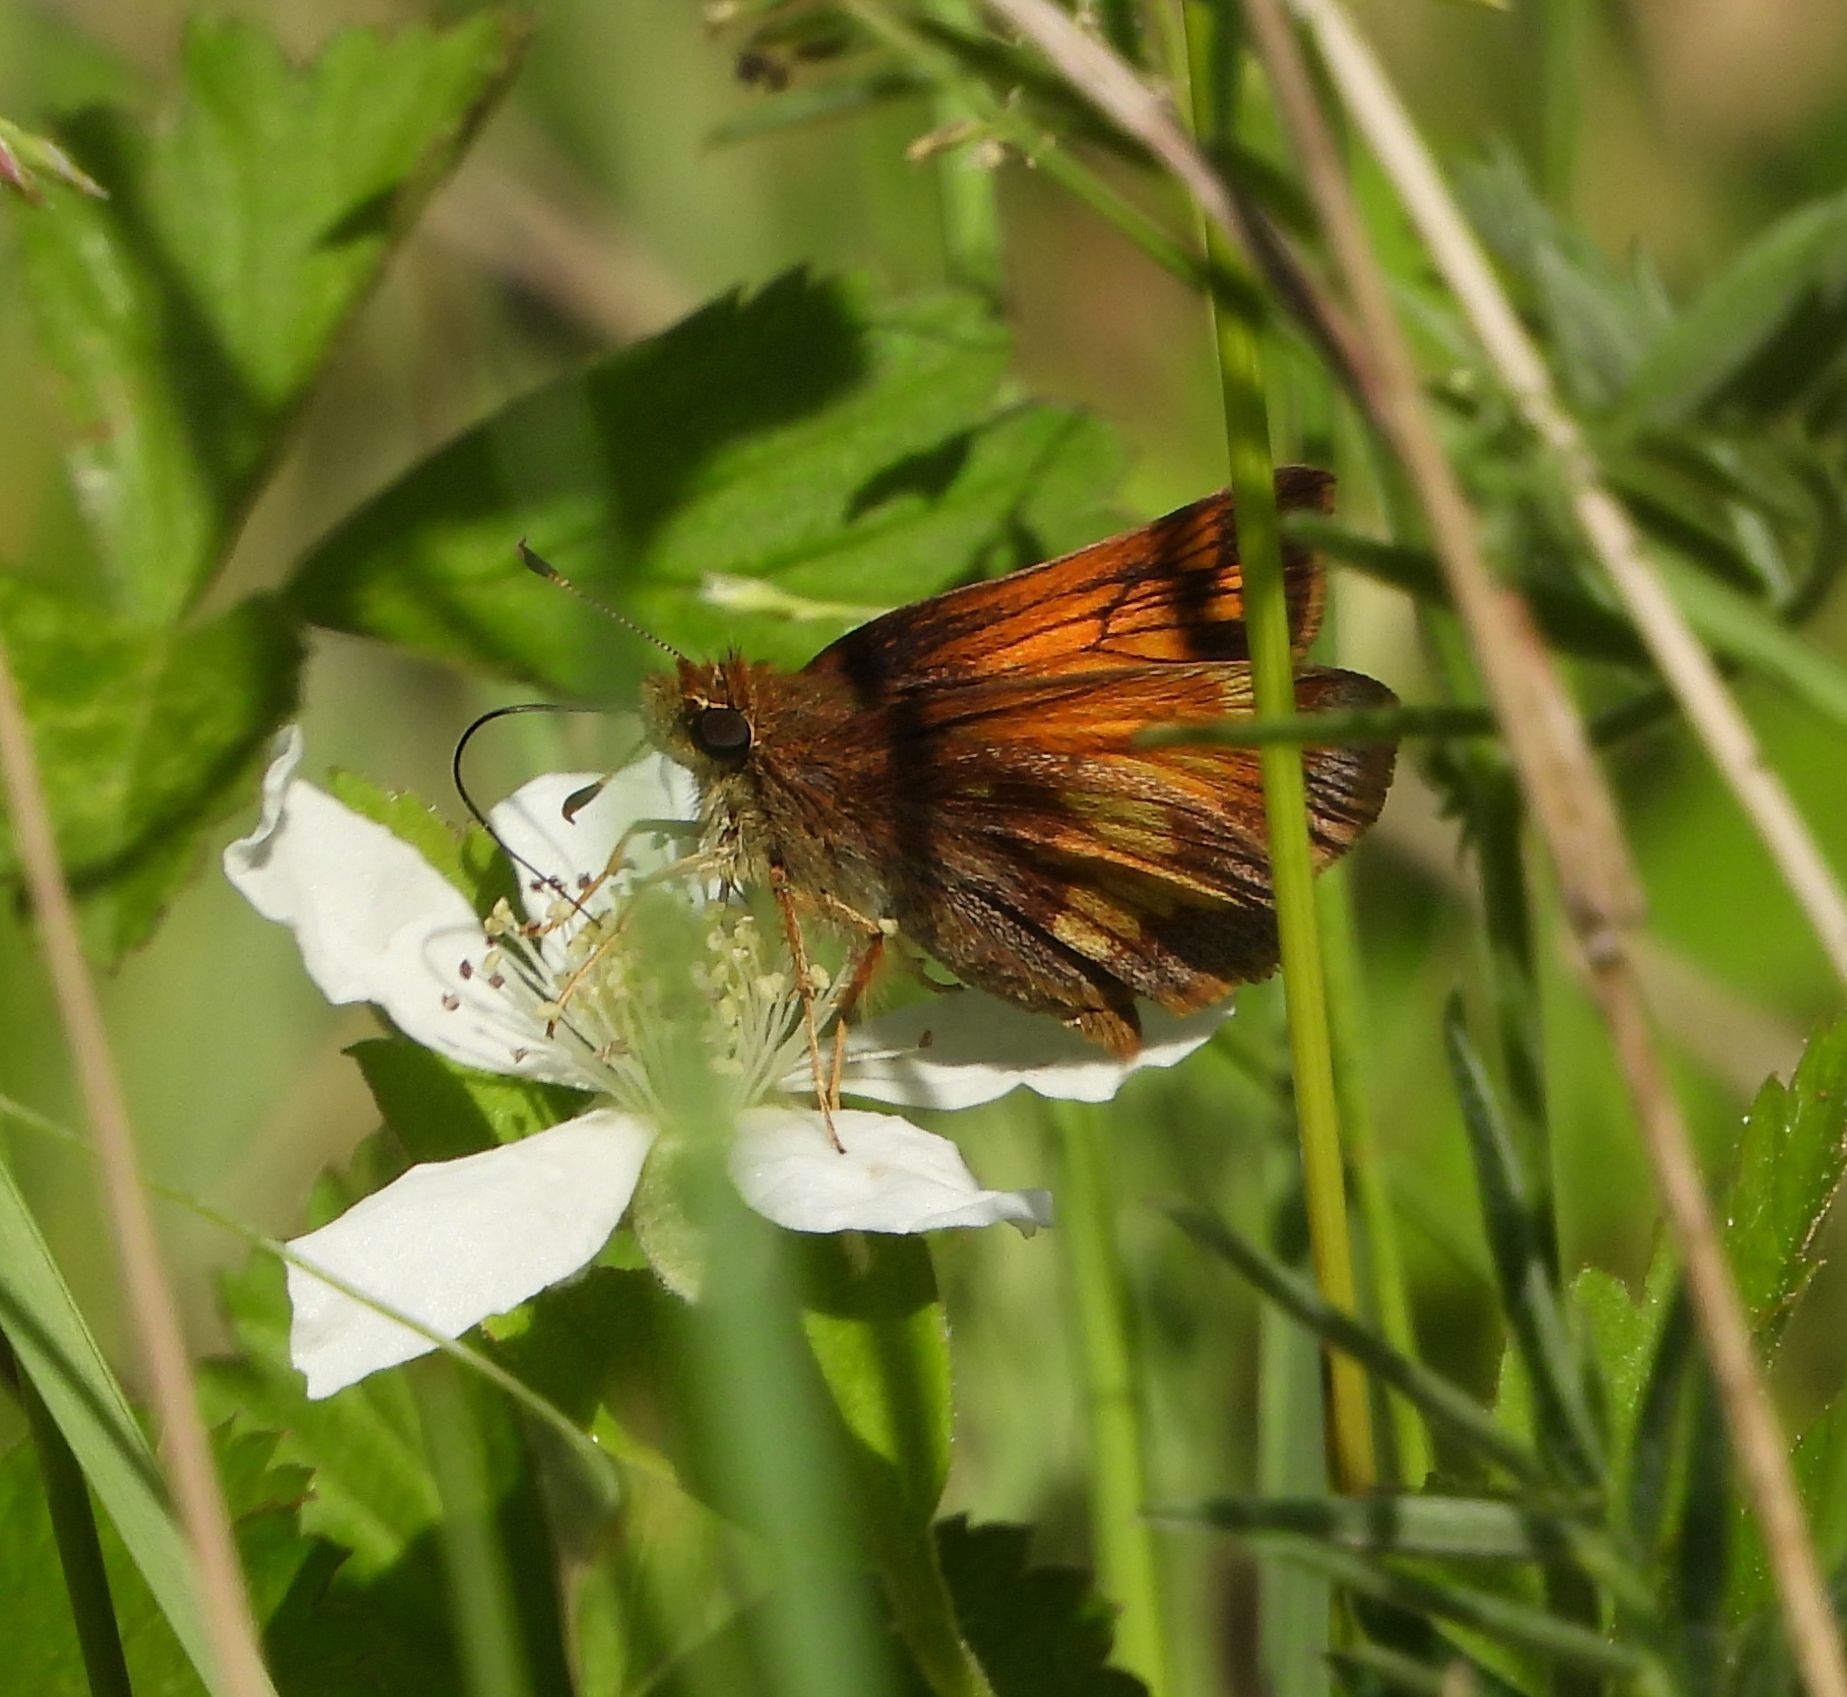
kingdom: Animalia
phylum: Arthropoda
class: Insecta
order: Lepidoptera
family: Hesperiidae
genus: Lon
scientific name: Lon hobomok
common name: Hobomok skipper
